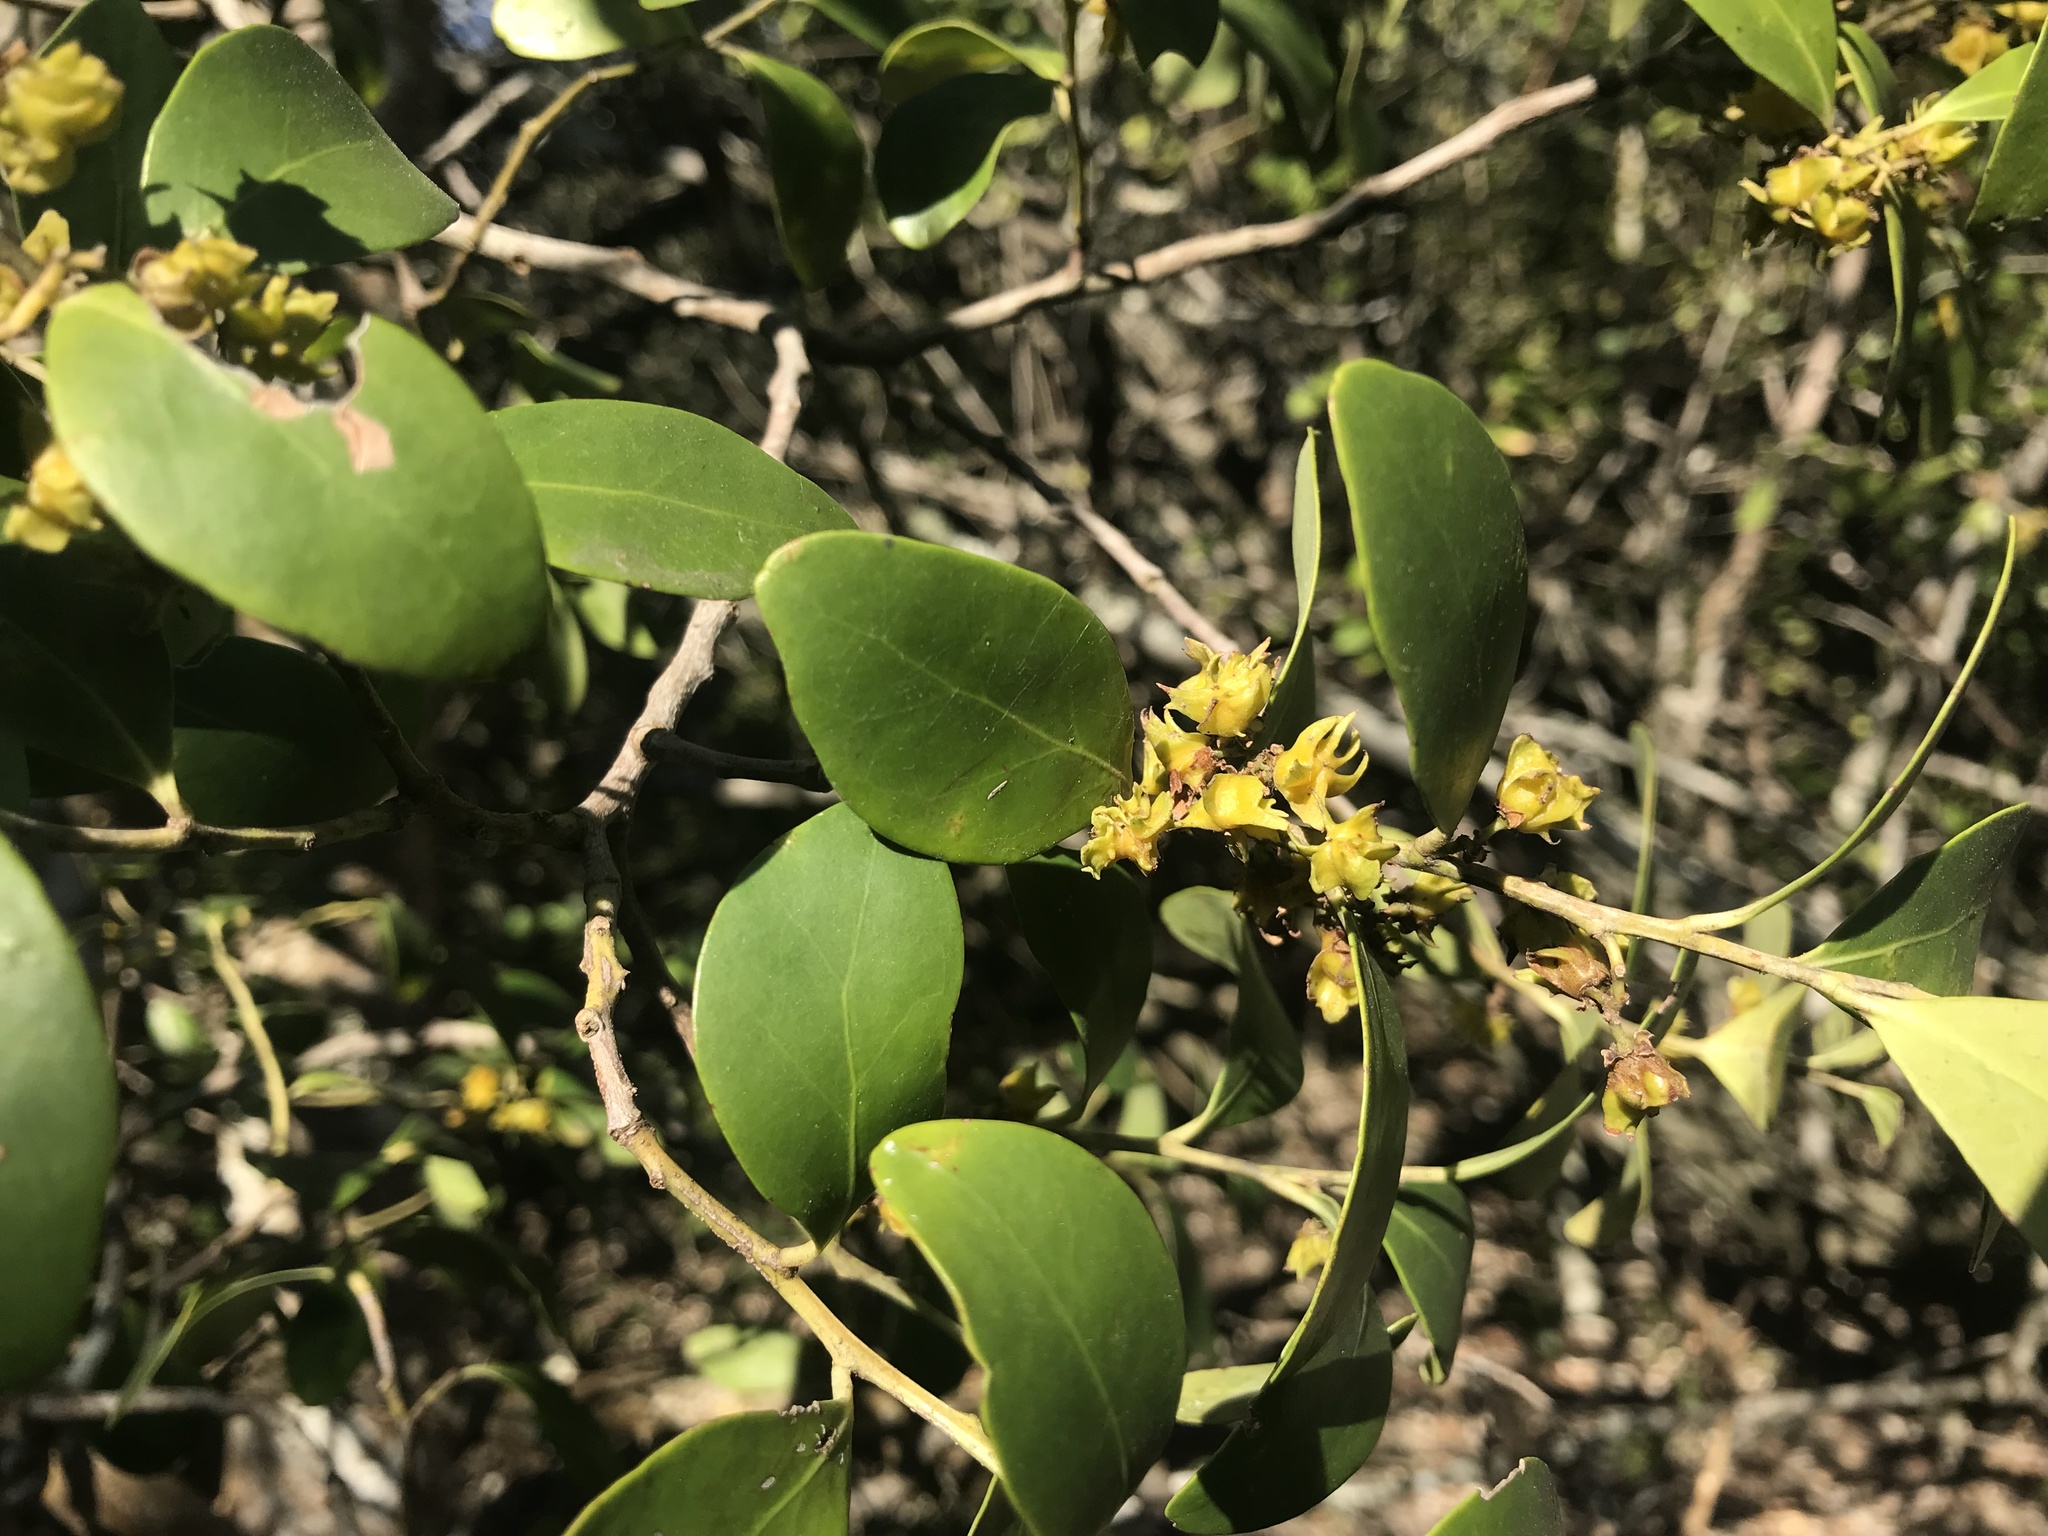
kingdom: Plantae
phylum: Tracheophyta
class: Magnoliopsida
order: Celastrales
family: Celastraceae
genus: Pterocelastrus
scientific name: Pterocelastrus tricuspidatus
